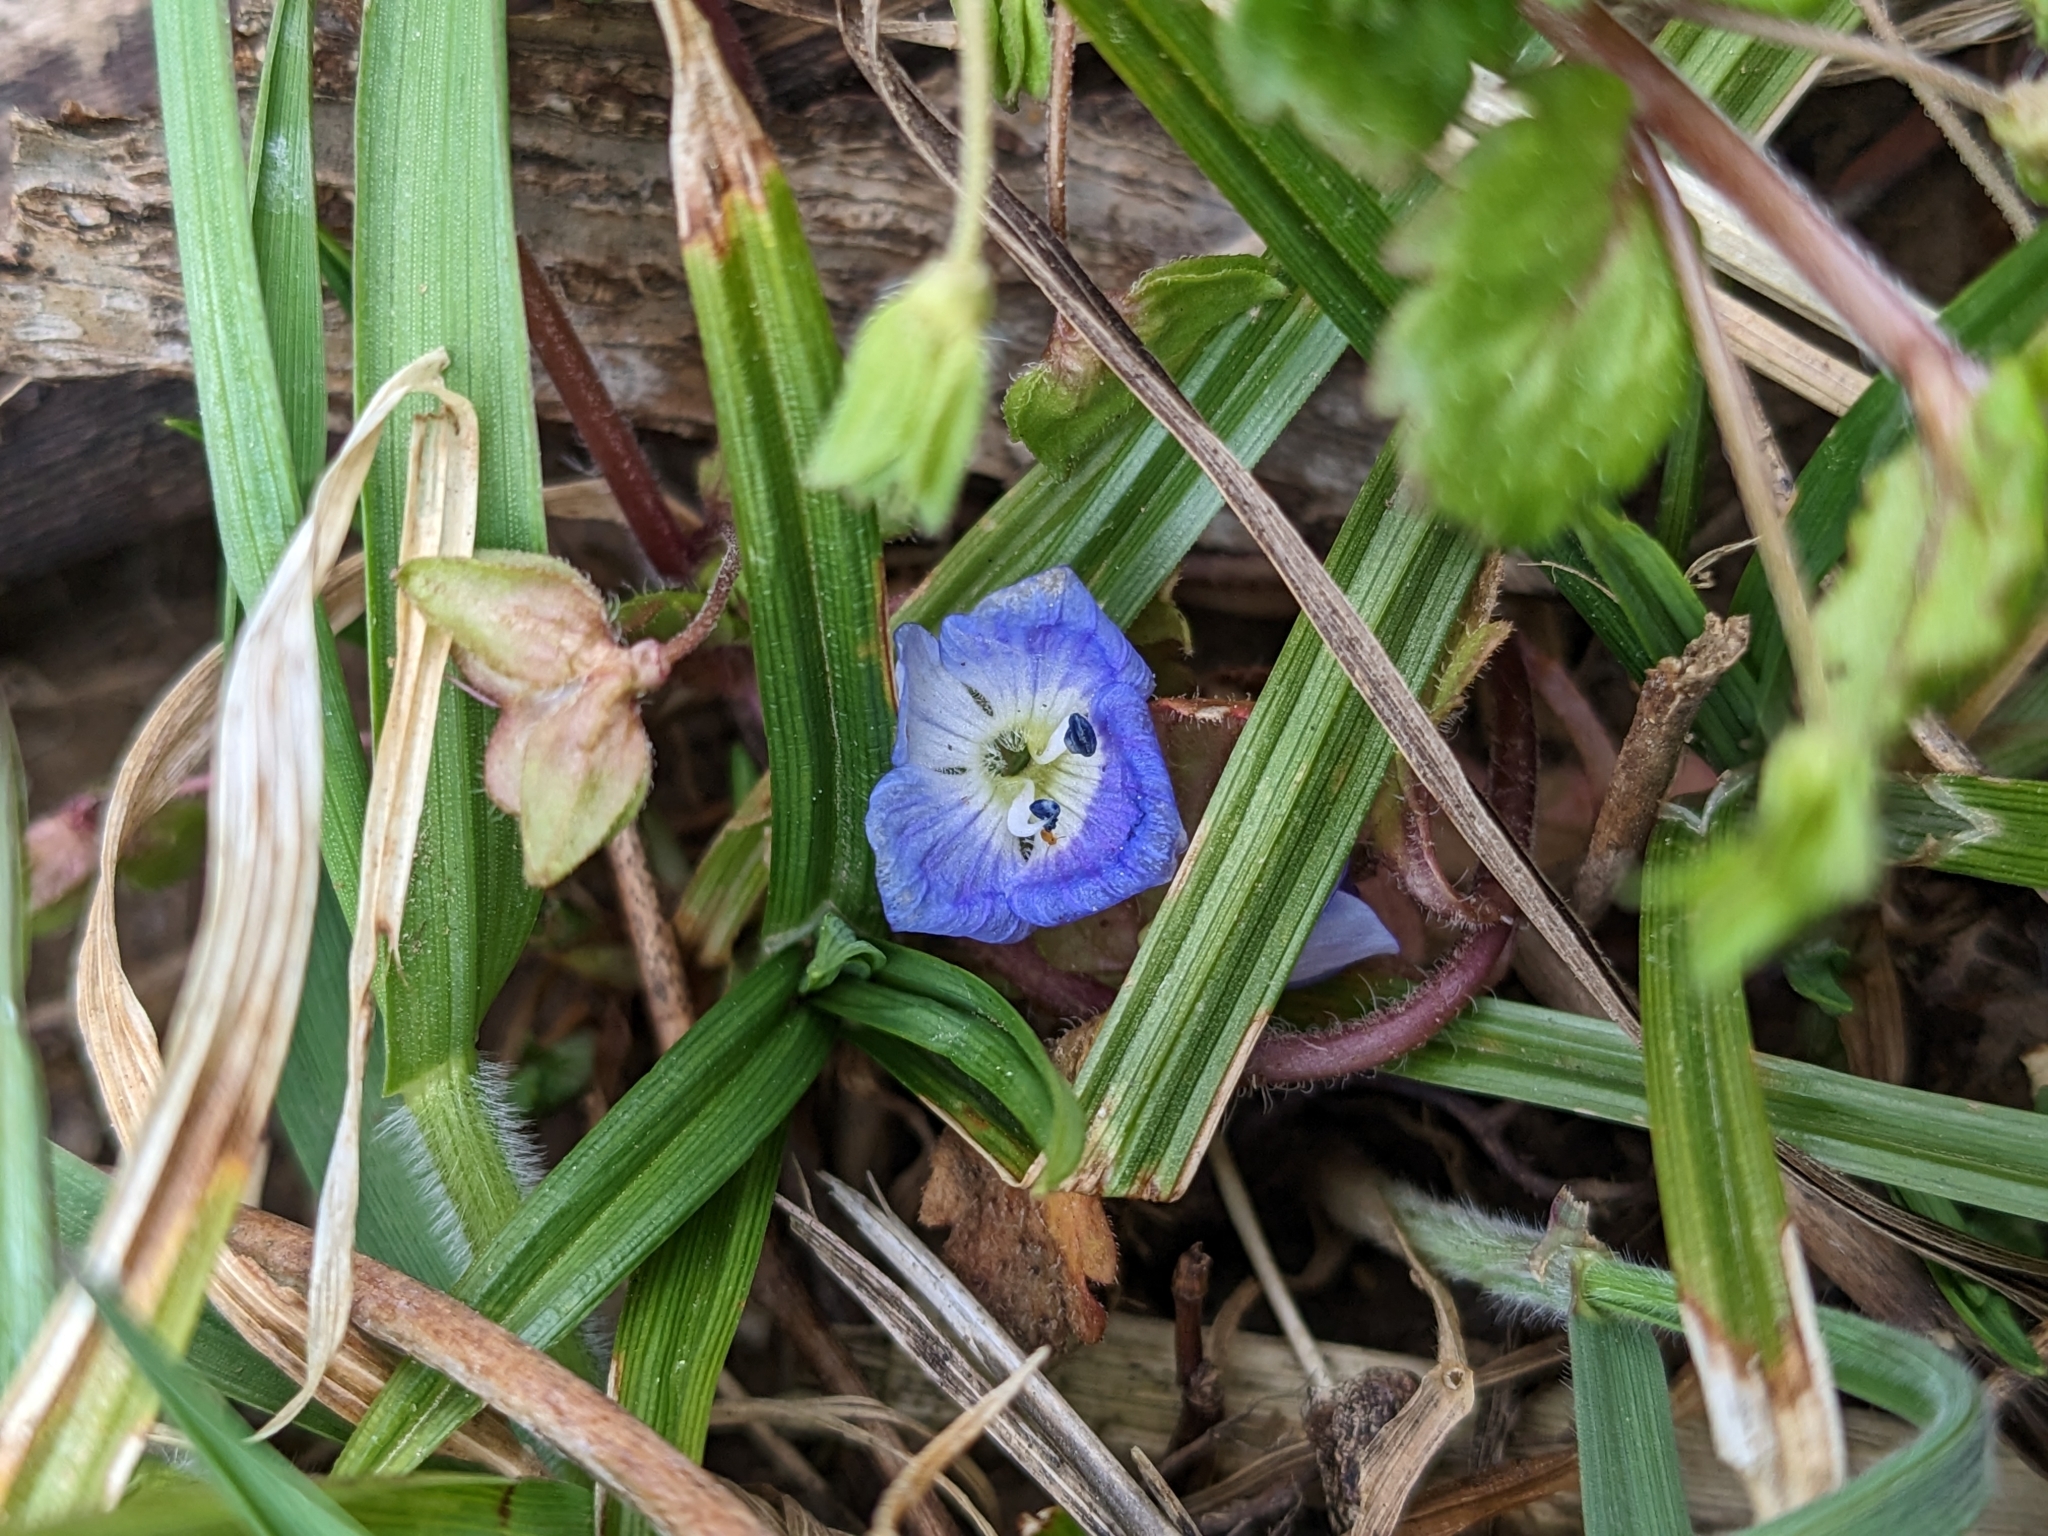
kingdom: Plantae
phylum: Tracheophyta
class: Magnoliopsida
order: Lamiales
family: Plantaginaceae
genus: Veronica
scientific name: Veronica persica
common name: Common field-speedwell
